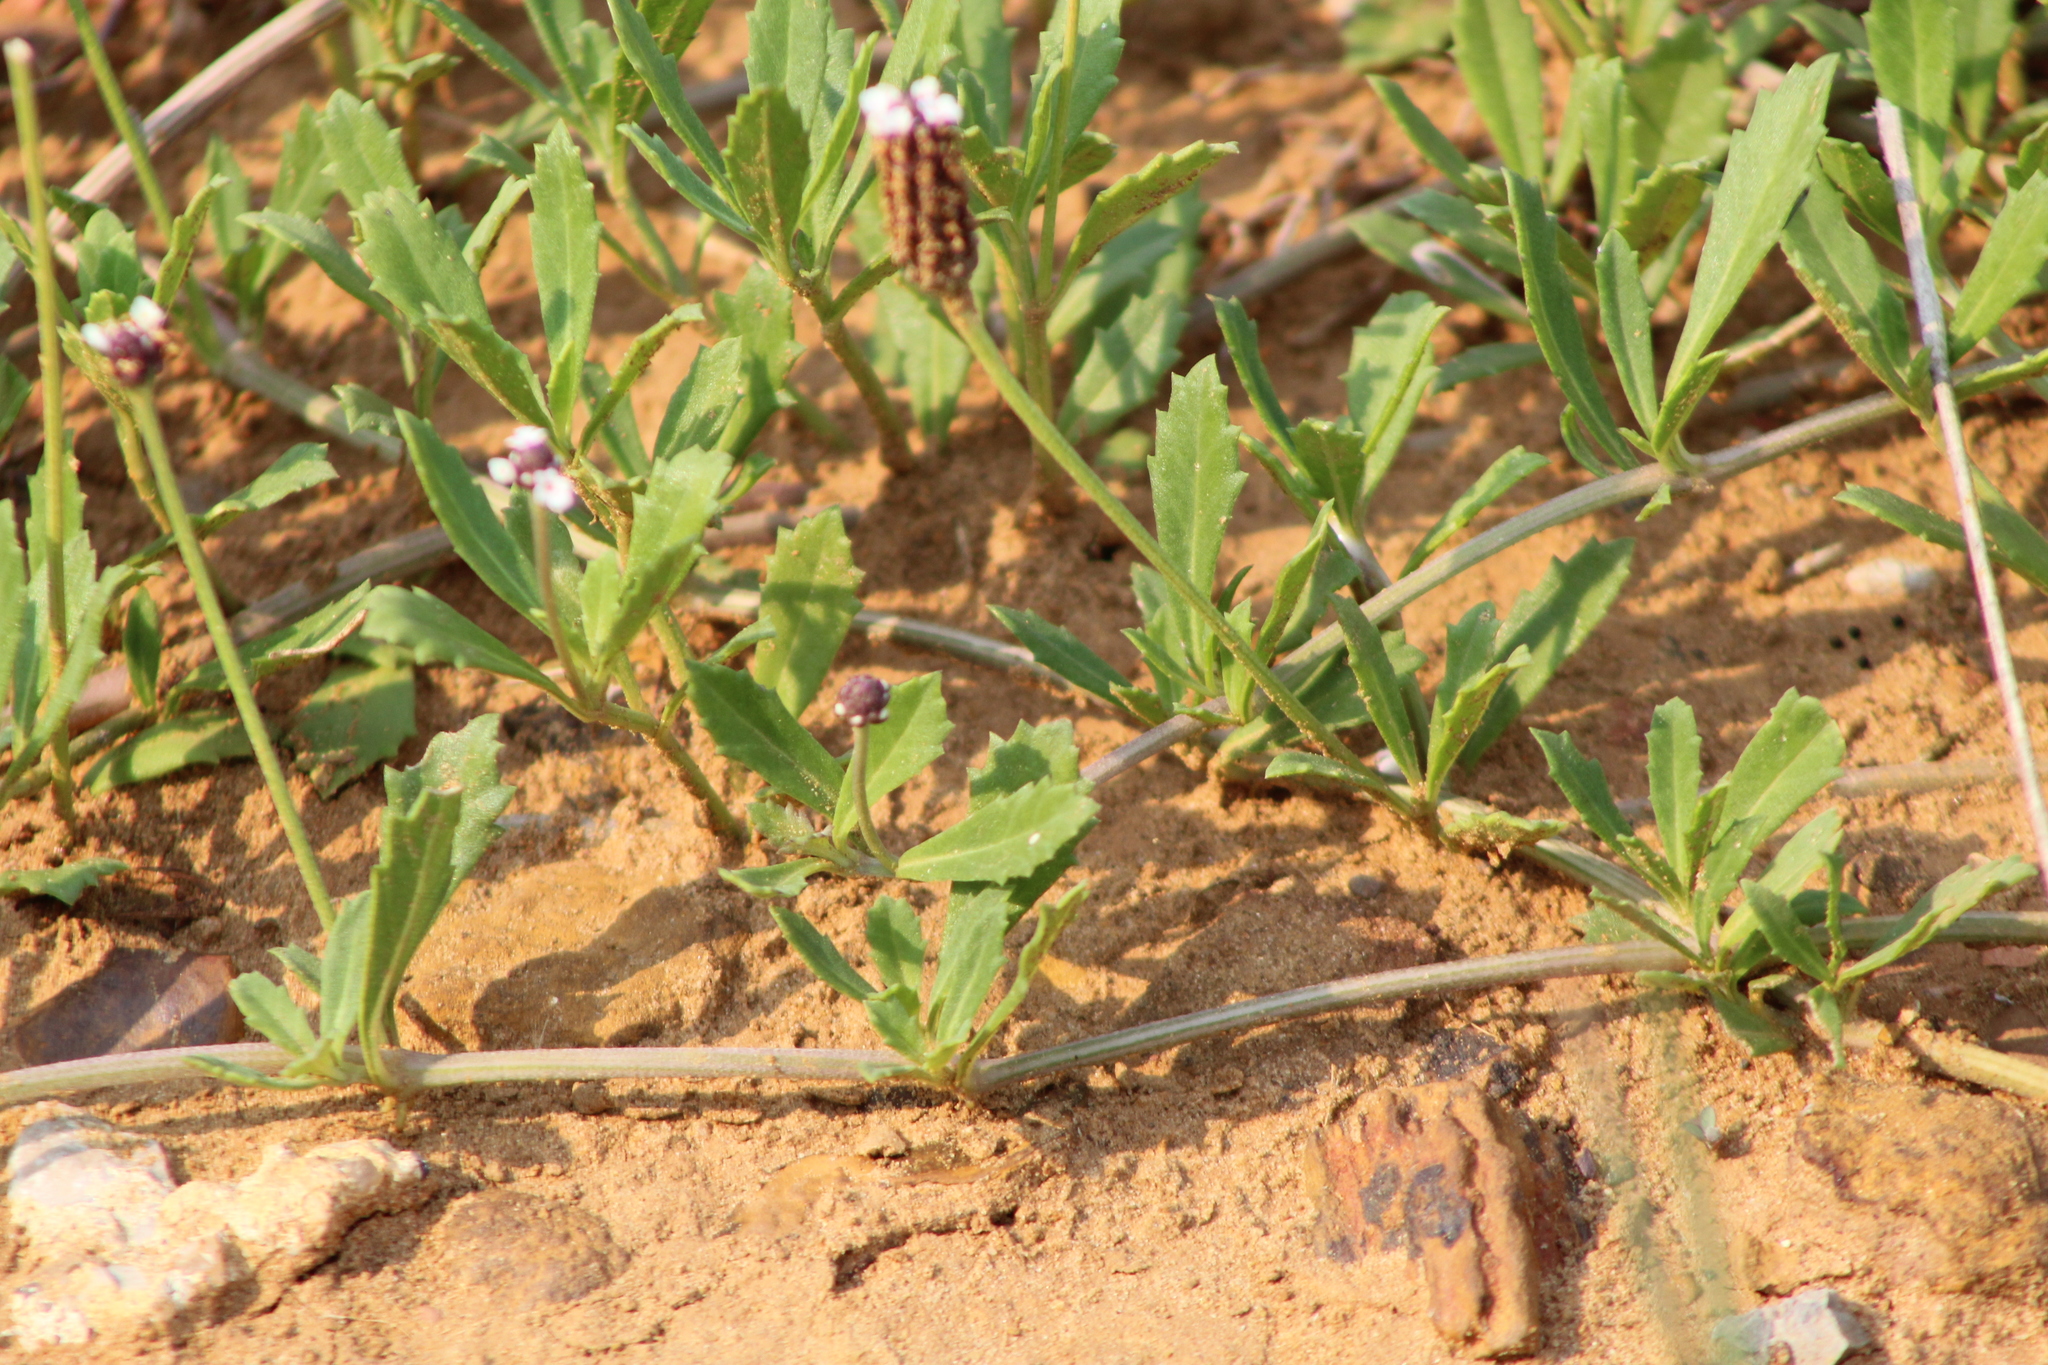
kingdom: Plantae
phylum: Tracheophyta
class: Magnoliopsida
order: Lamiales
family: Verbenaceae
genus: Phyla
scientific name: Phyla nodiflora
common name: Frogfruit
